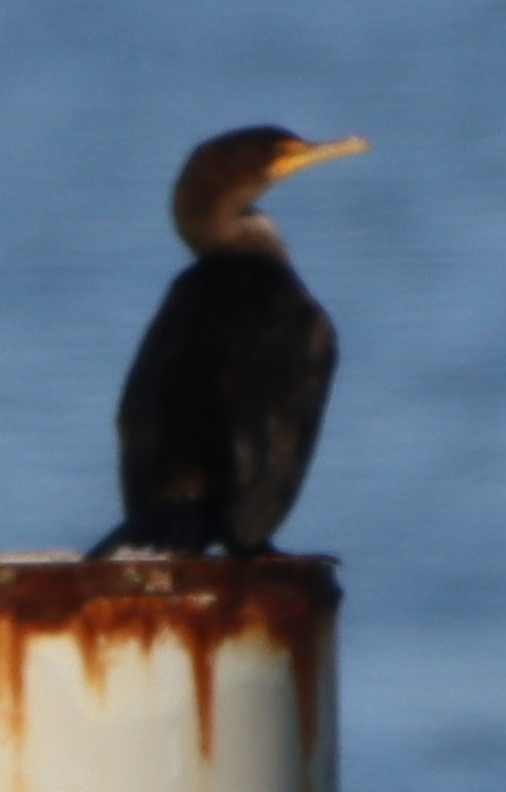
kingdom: Animalia
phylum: Chordata
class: Aves
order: Suliformes
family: Phalacrocoracidae
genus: Phalacrocorax
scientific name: Phalacrocorax auritus
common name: Double-crested cormorant
